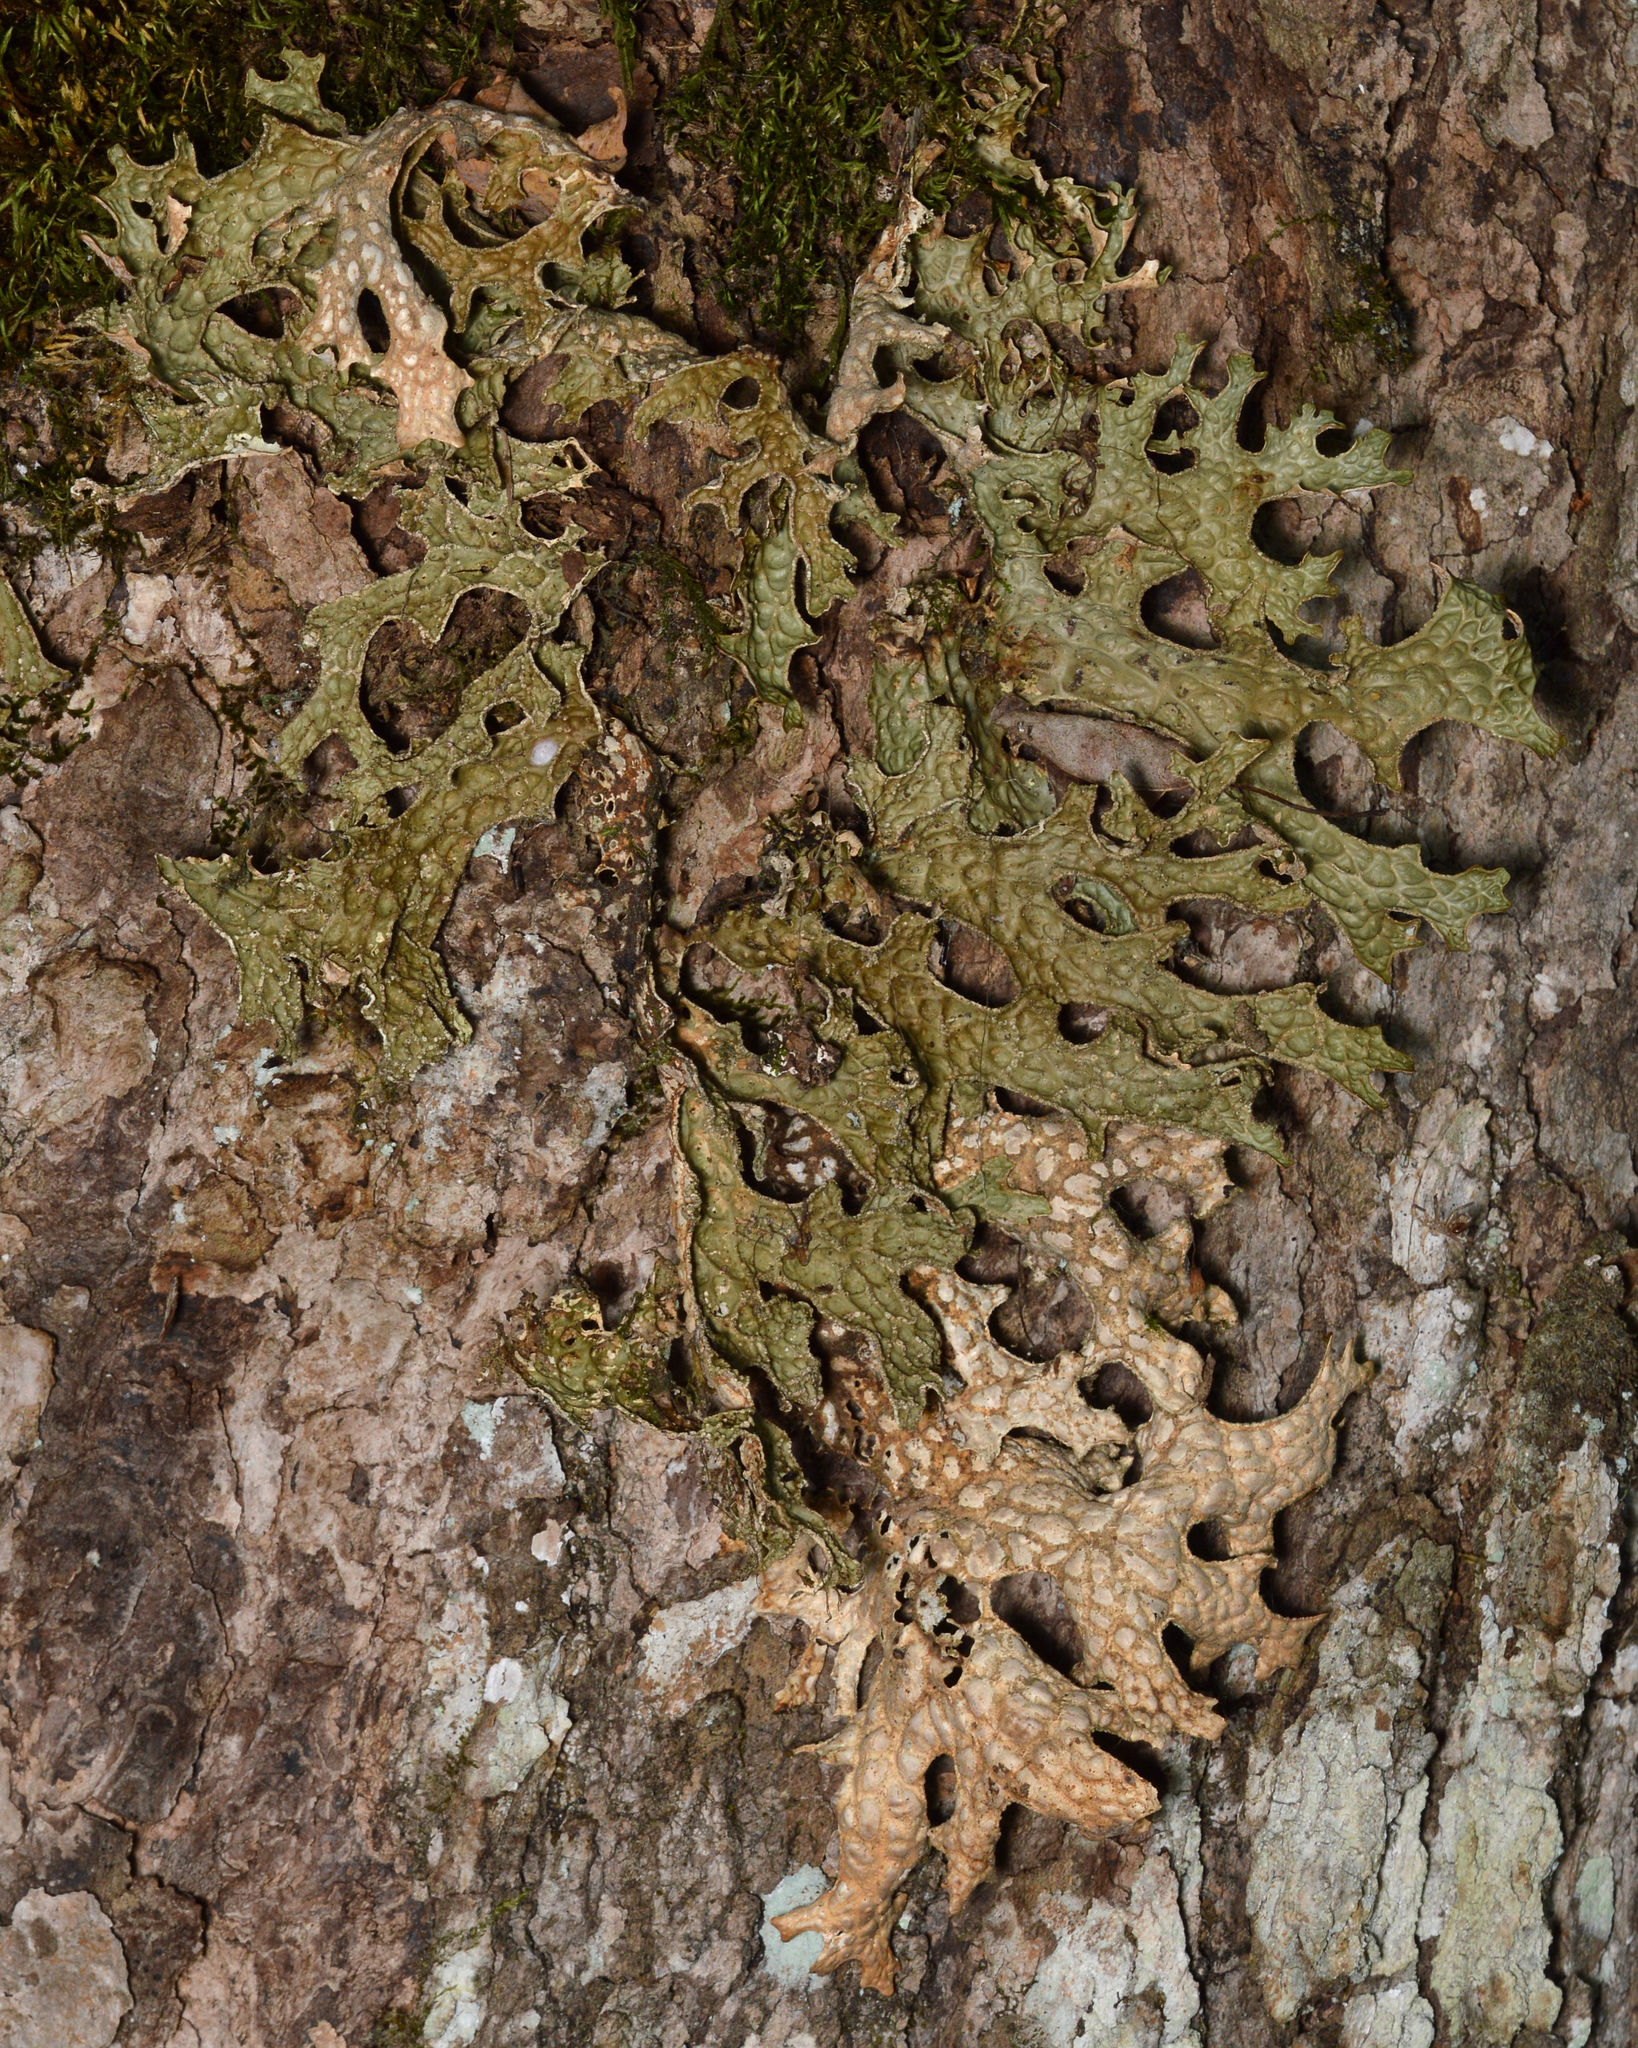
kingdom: Fungi
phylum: Ascomycota
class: Lecanoromycetes
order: Peltigerales
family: Lobariaceae
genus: Lobaria
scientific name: Lobaria pulmonaria
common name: Lungwort
